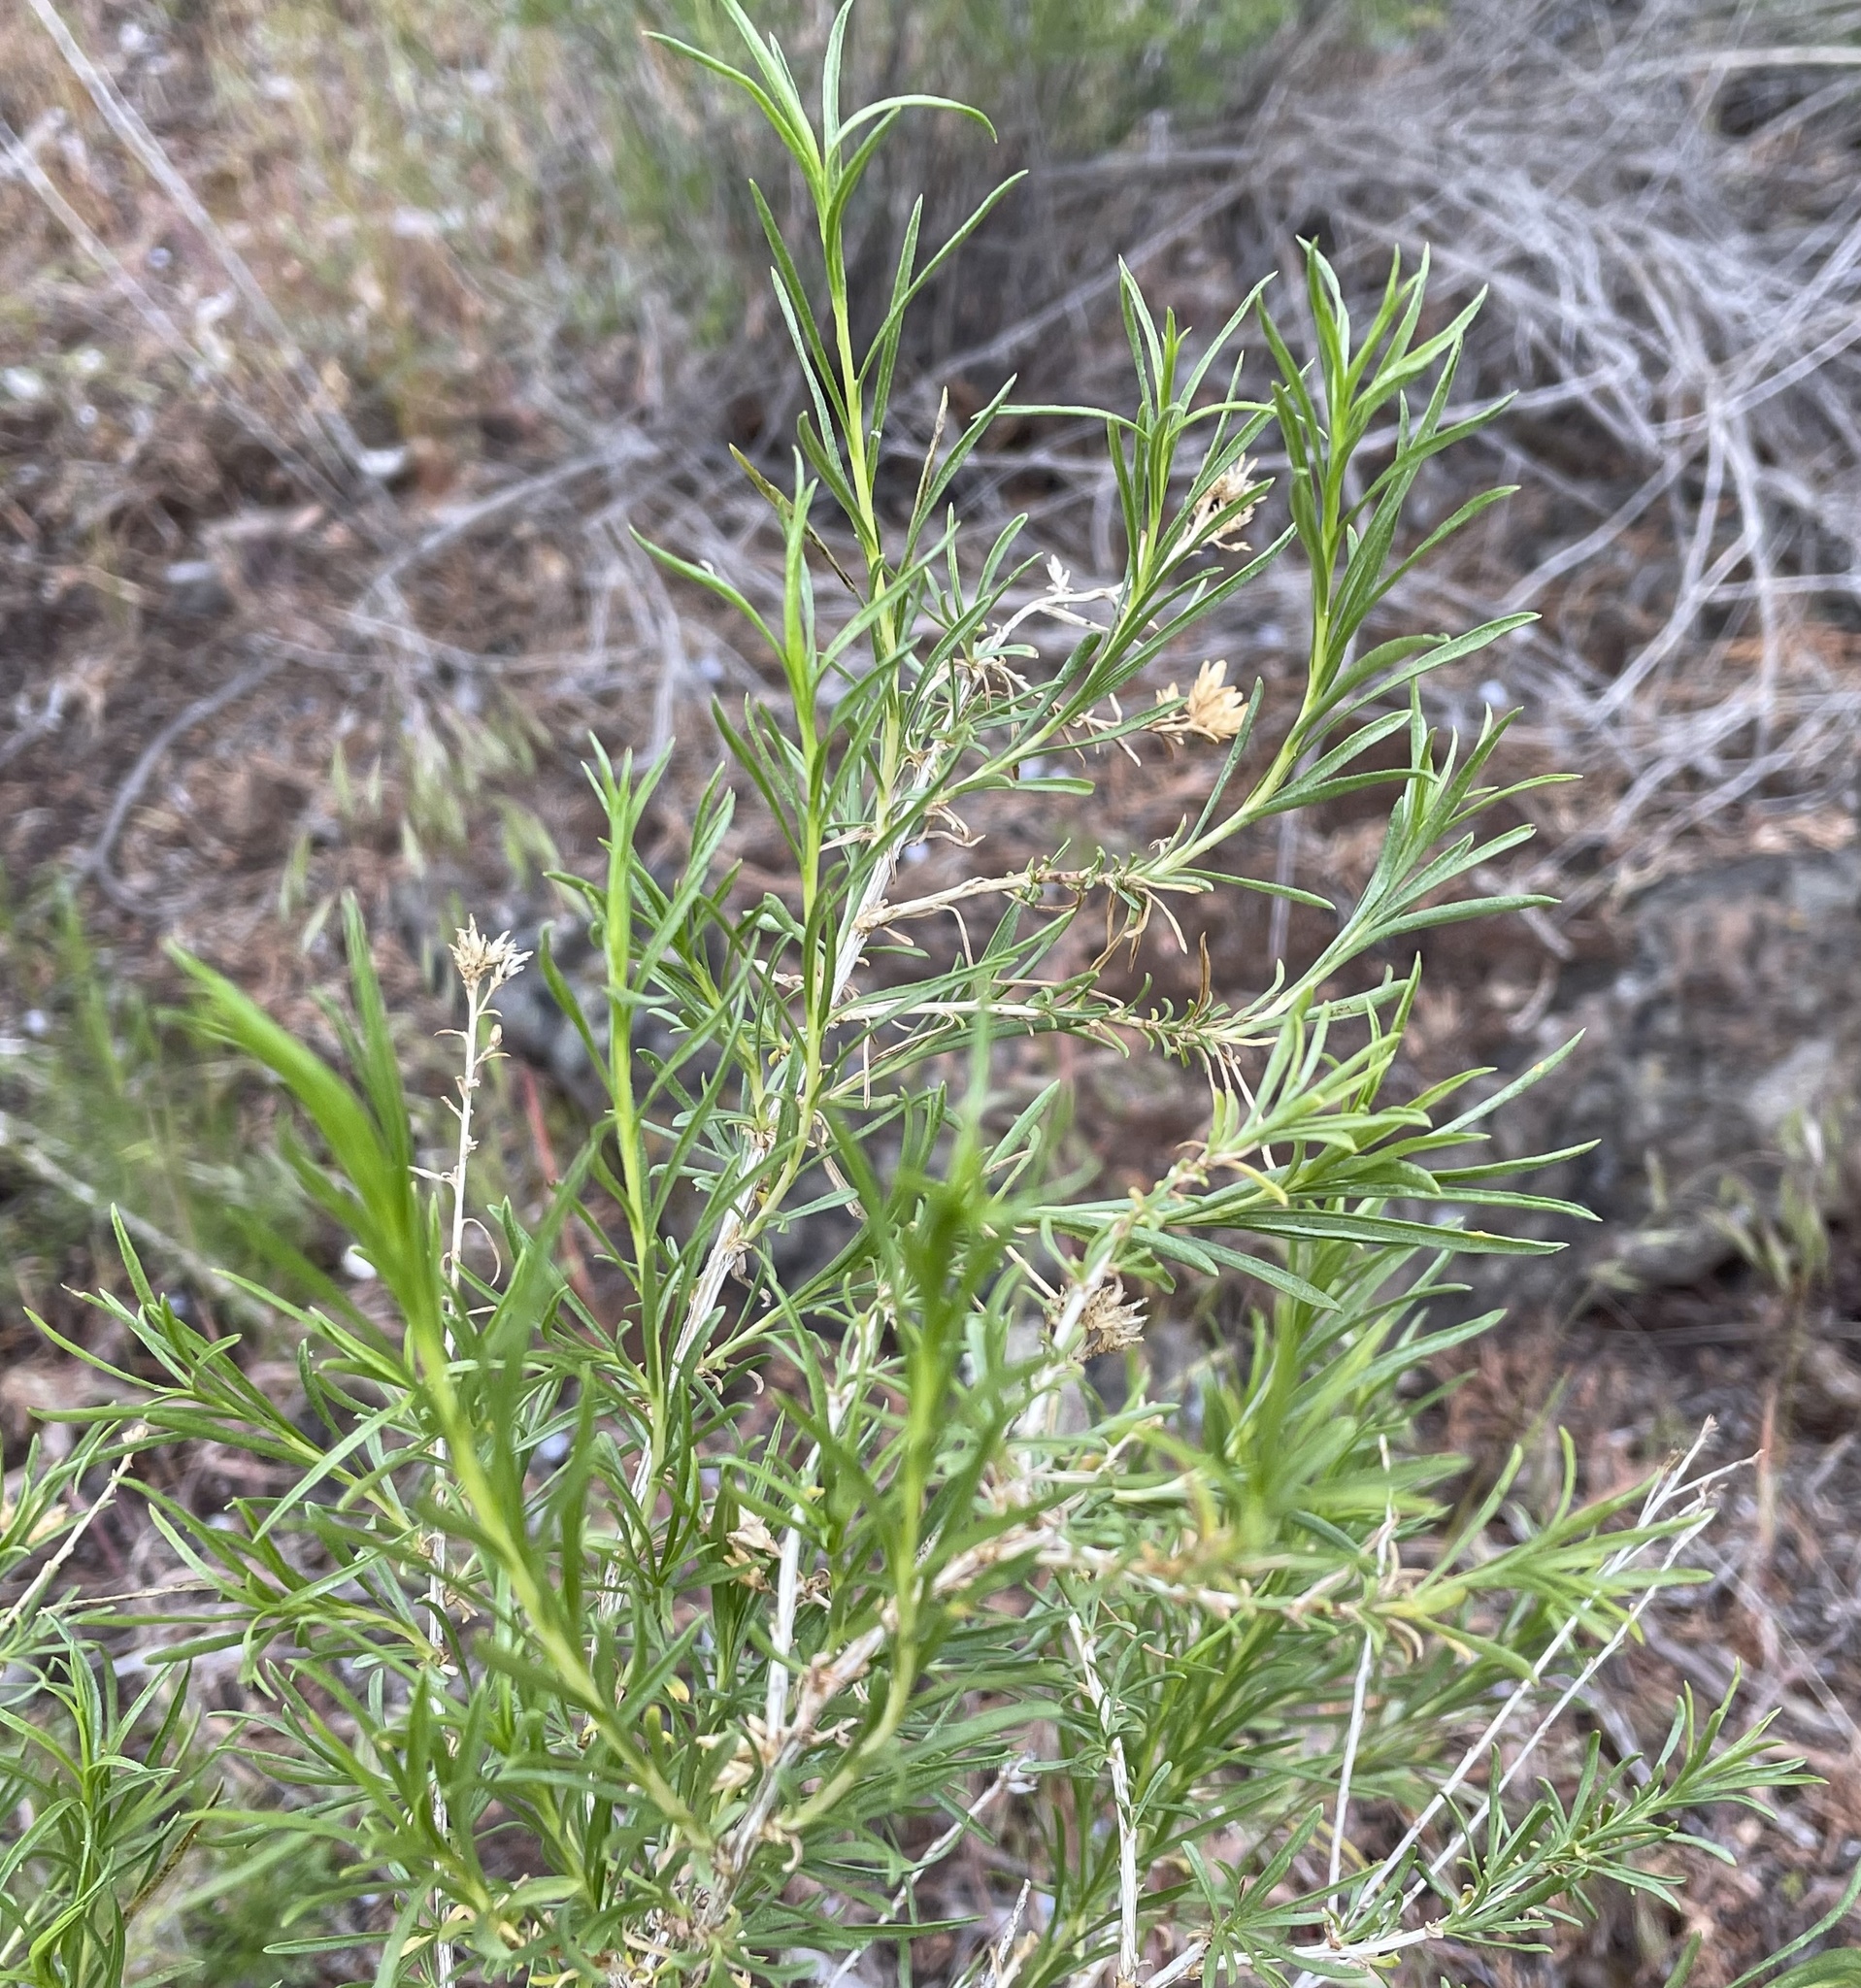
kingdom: Animalia
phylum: Arthropoda
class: Insecta
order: Diptera
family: Tephritidae
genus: Aciurina
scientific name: Aciurina idahoensis
